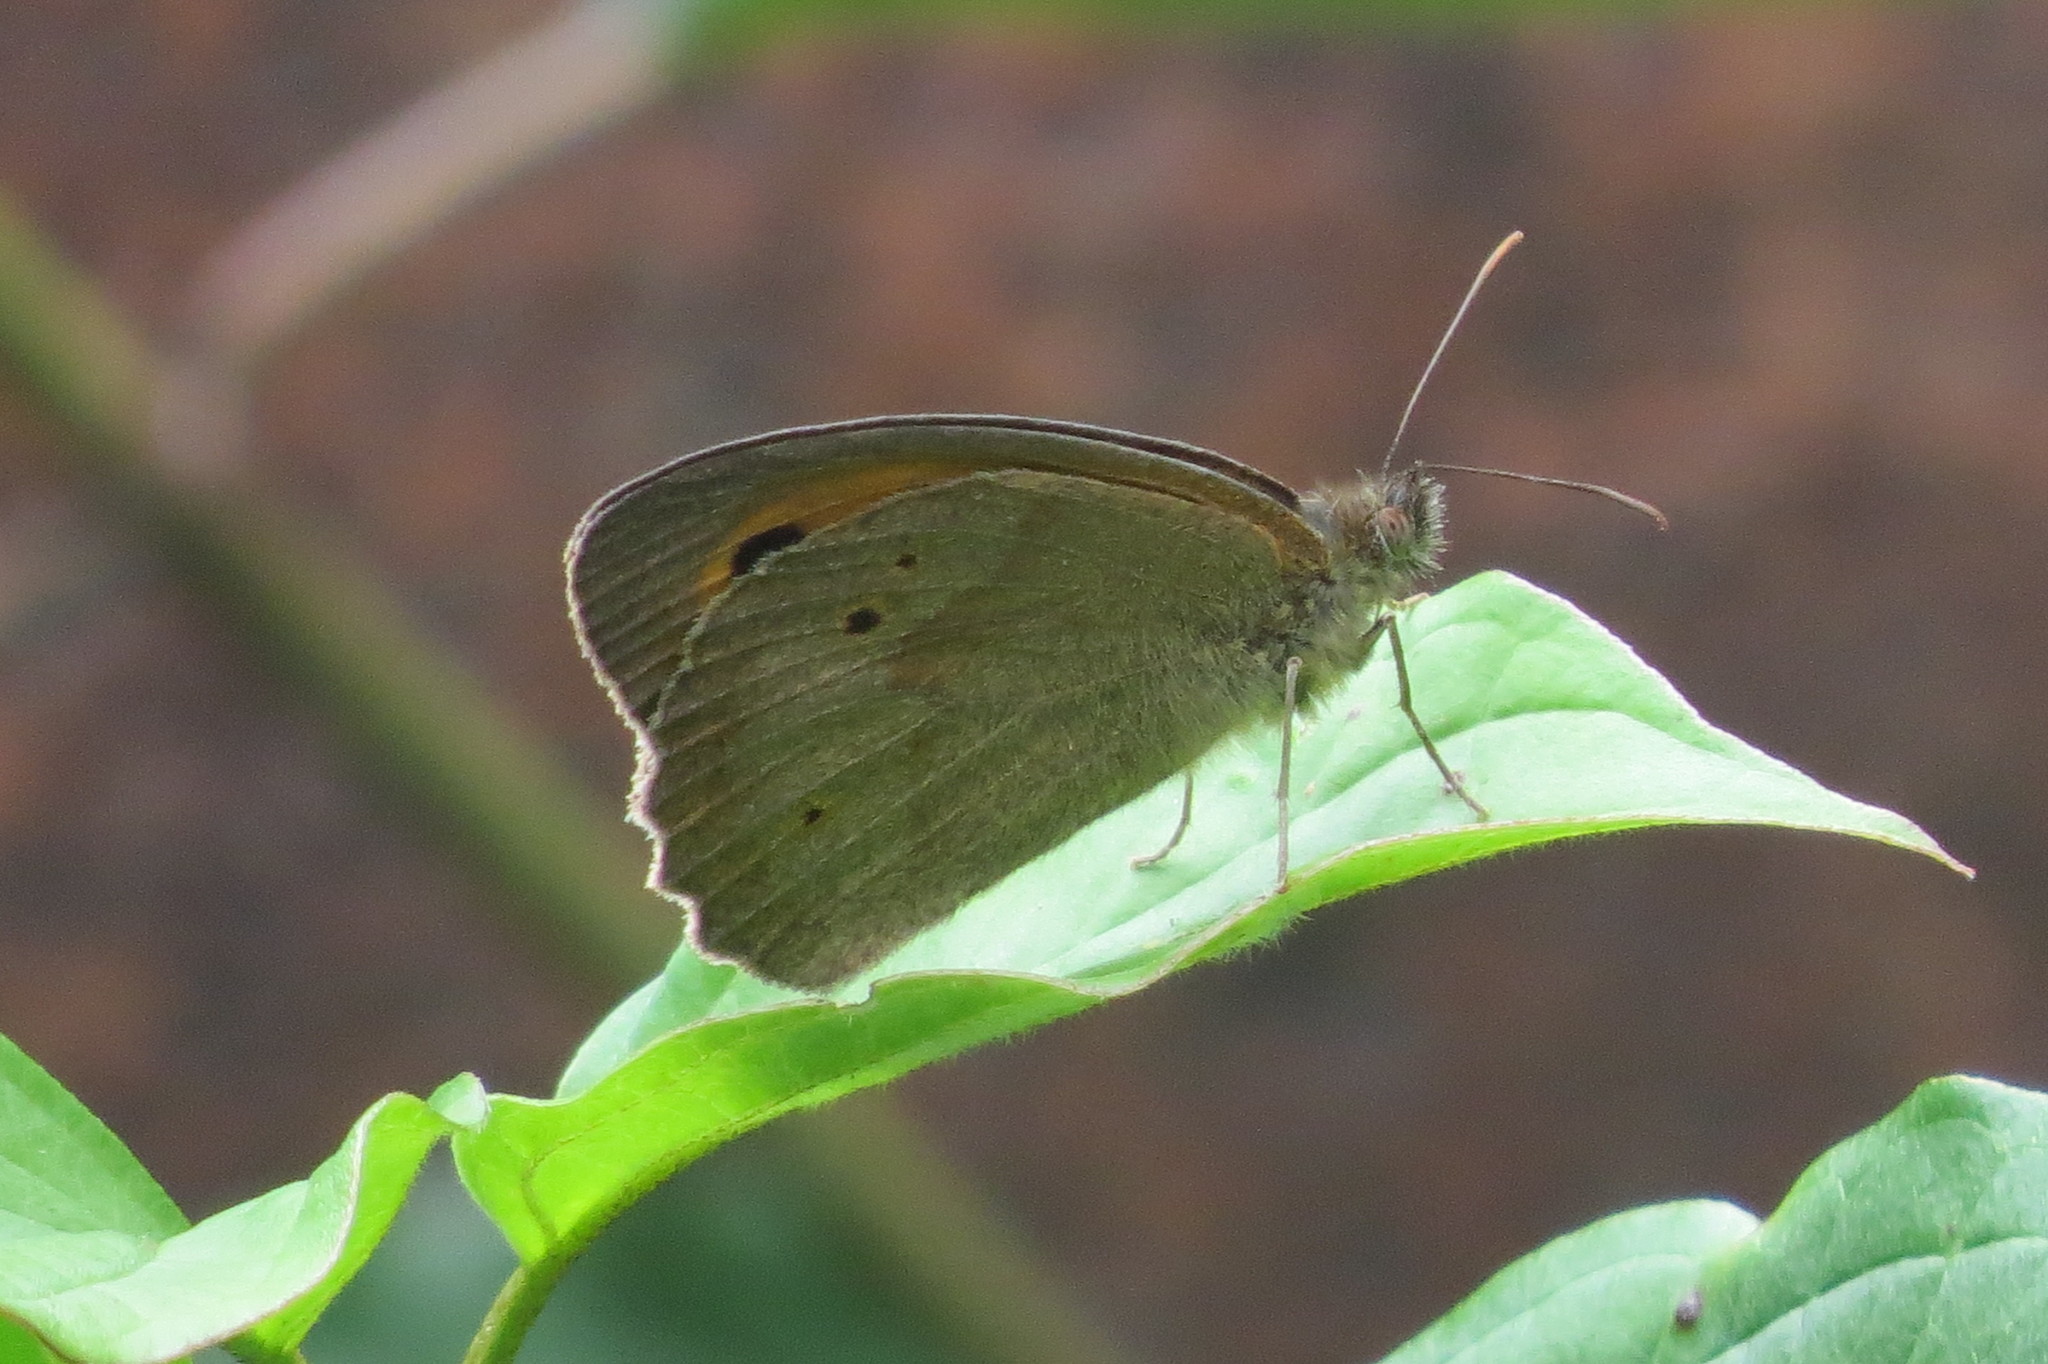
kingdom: Animalia
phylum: Arthropoda
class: Insecta
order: Lepidoptera
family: Nymphalidae
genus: Maniola
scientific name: Maniola jurtina
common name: Meadow brown
